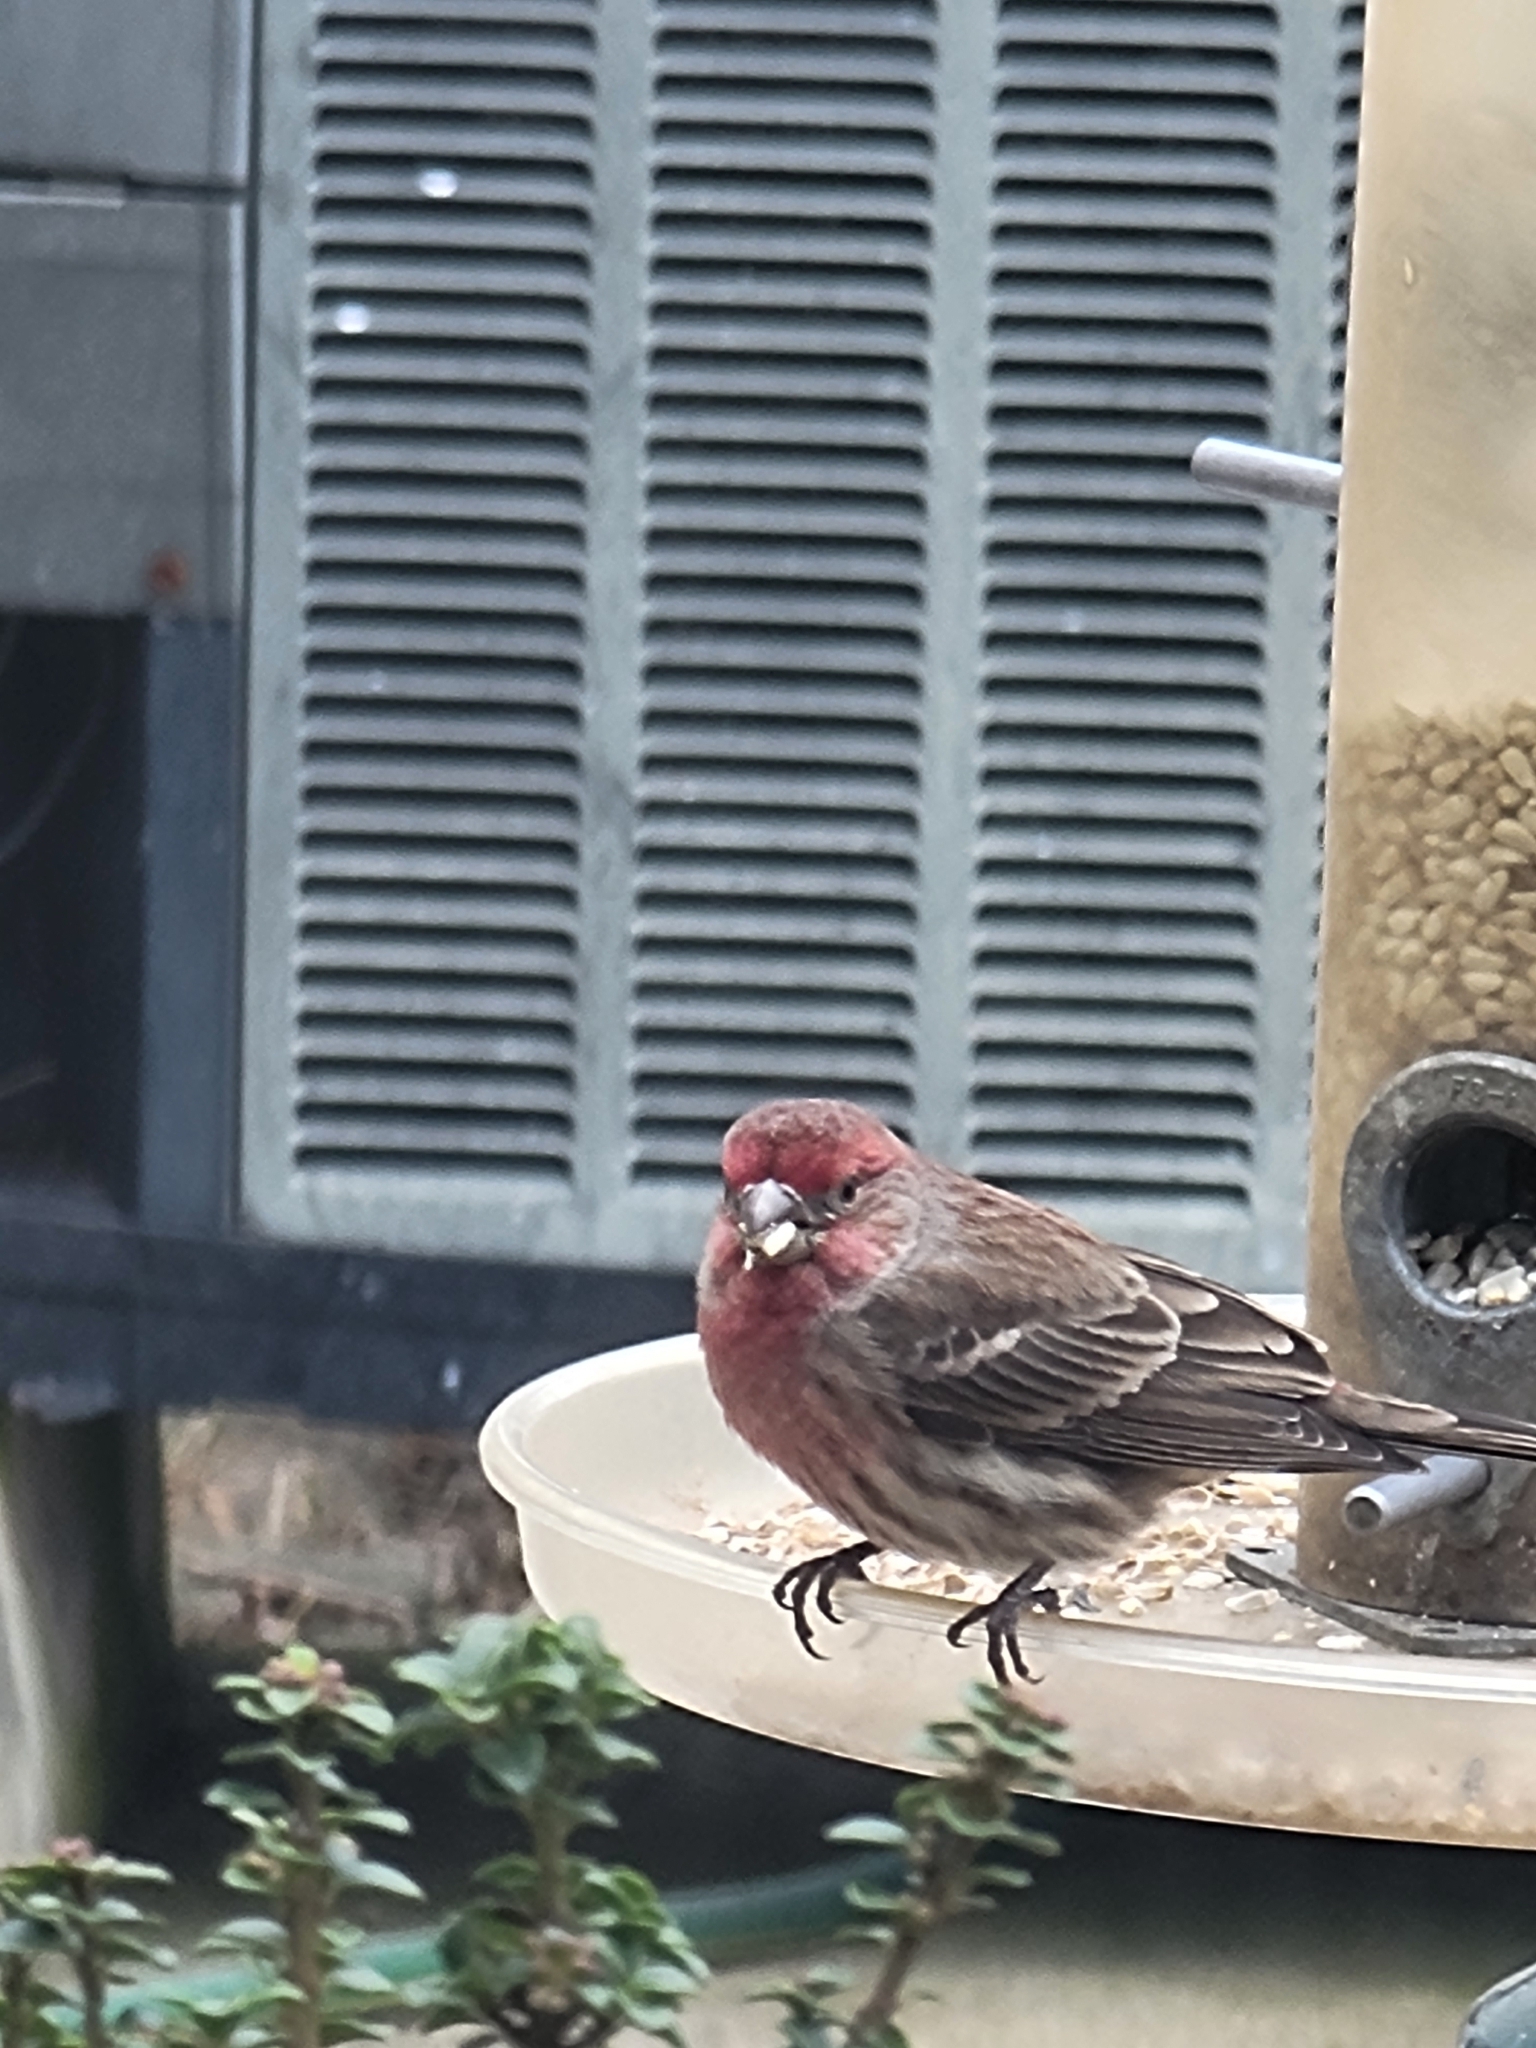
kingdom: Animalia
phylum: Chordata
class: Aves
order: Passeriformes
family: Fringillidae
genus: Haemorhous
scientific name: Haemorhous mexicanus
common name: House finch
